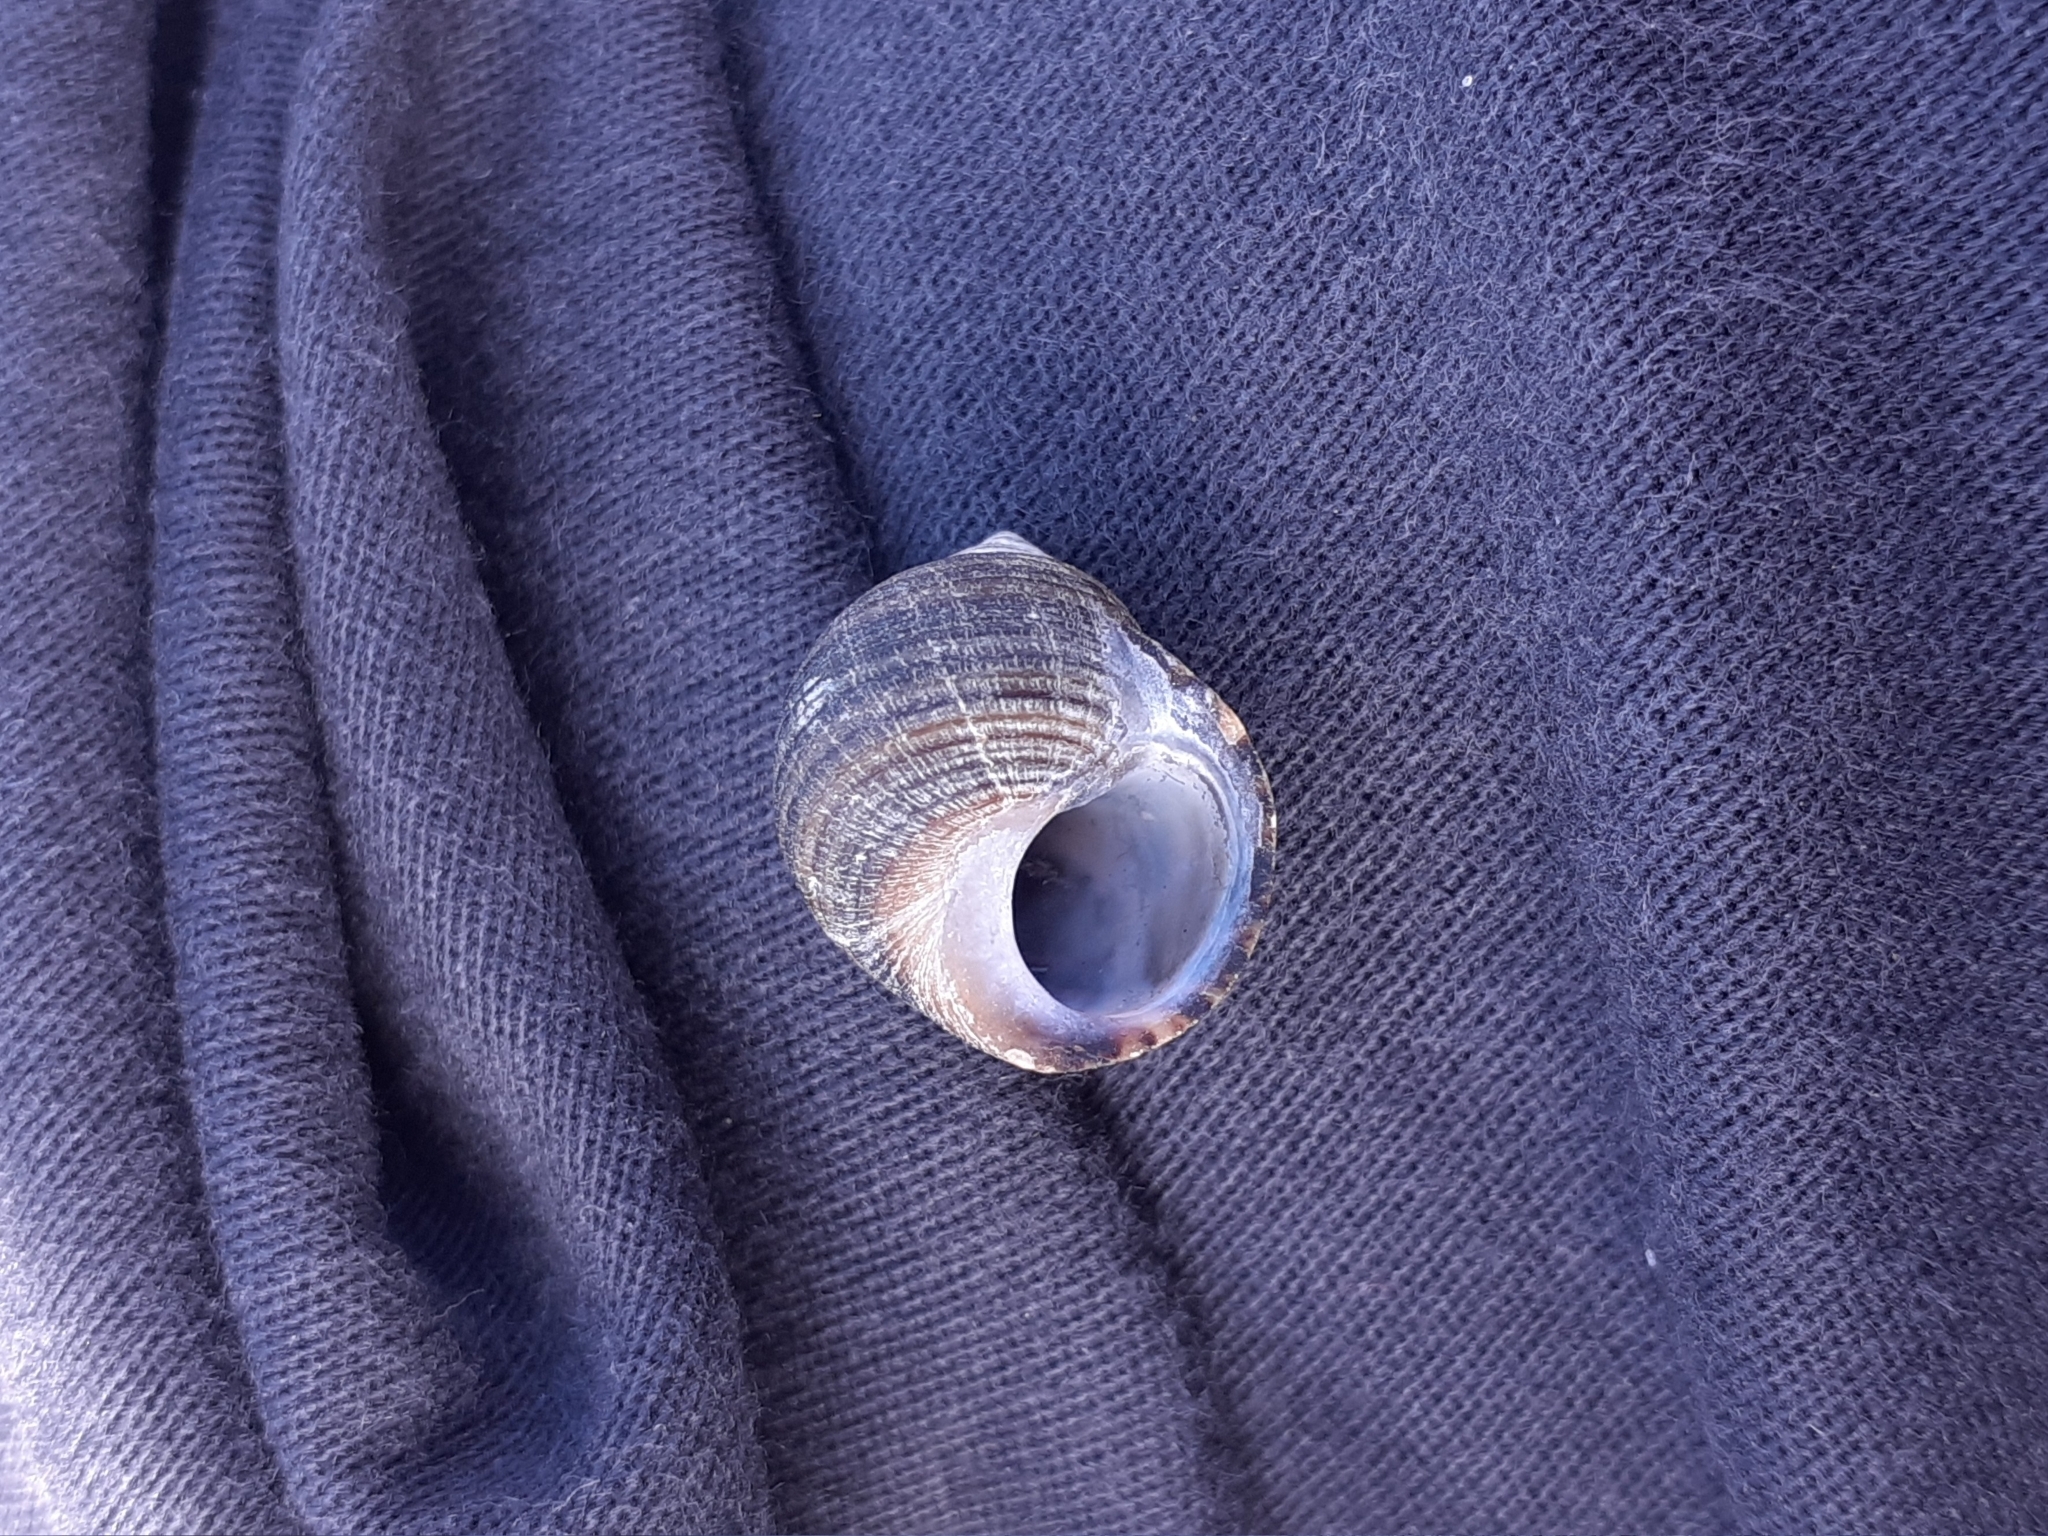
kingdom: Animalia
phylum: Mollusca
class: Gastropoda
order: Littorinimorpha
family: Littorinidae
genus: Littorina
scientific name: Littorina littorea
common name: Common periwinkle
